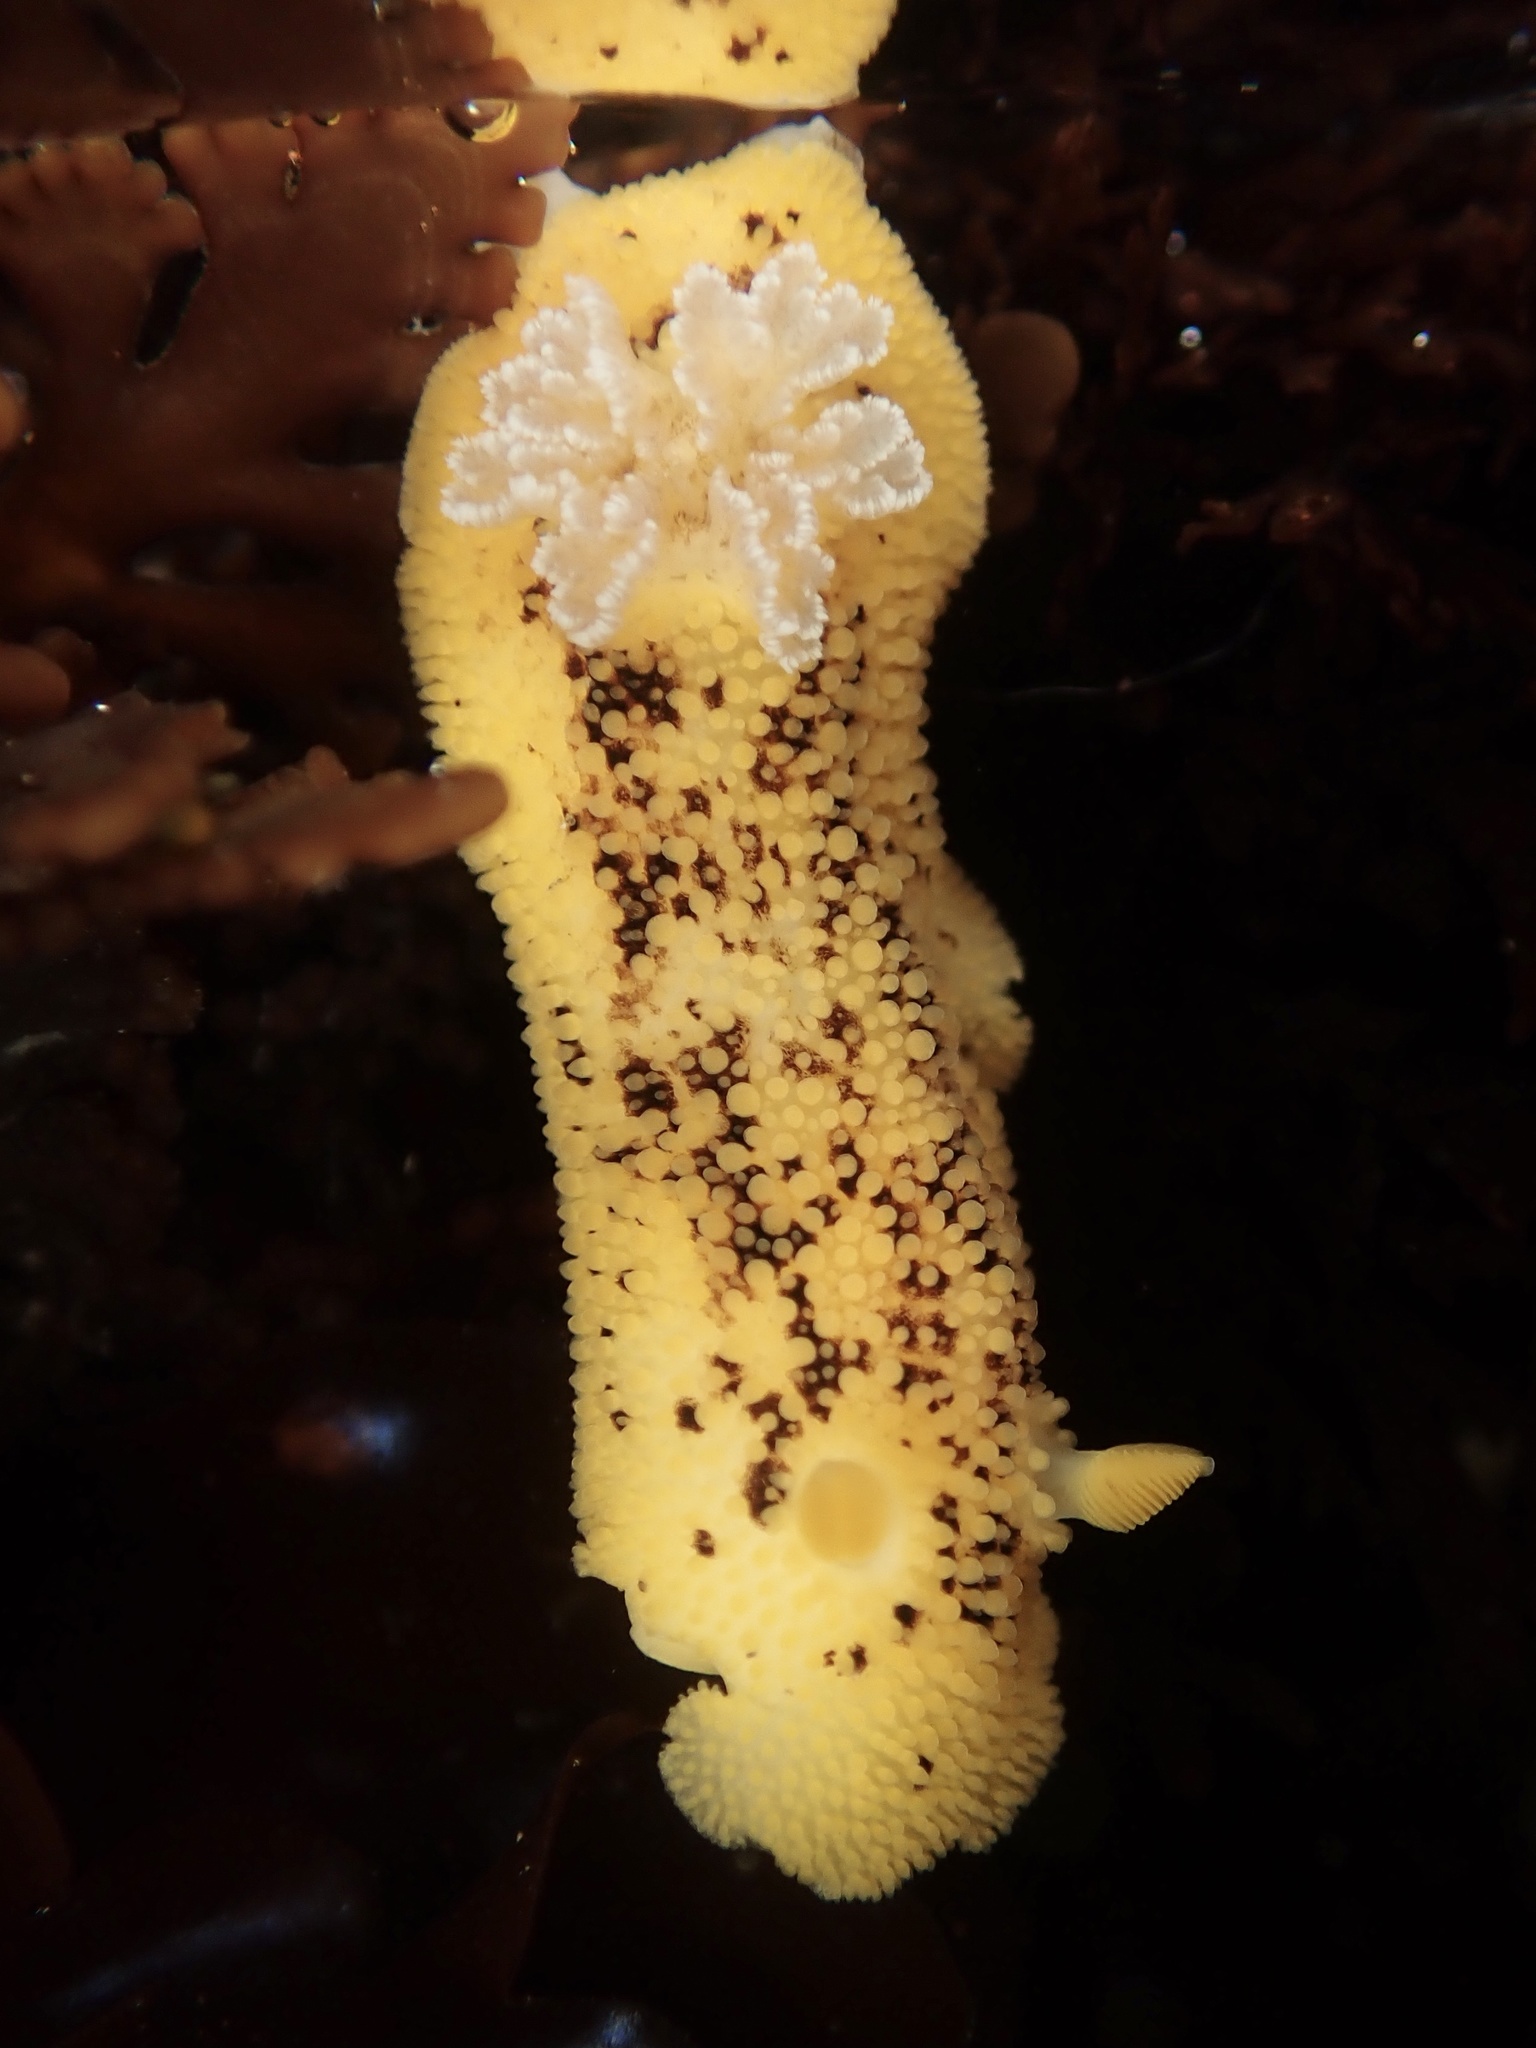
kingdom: Animalia
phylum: Mollusca
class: Gastropoda
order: Nudibranchia
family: Discodorididae
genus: Peltodoris
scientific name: Peltodoris nobilis
